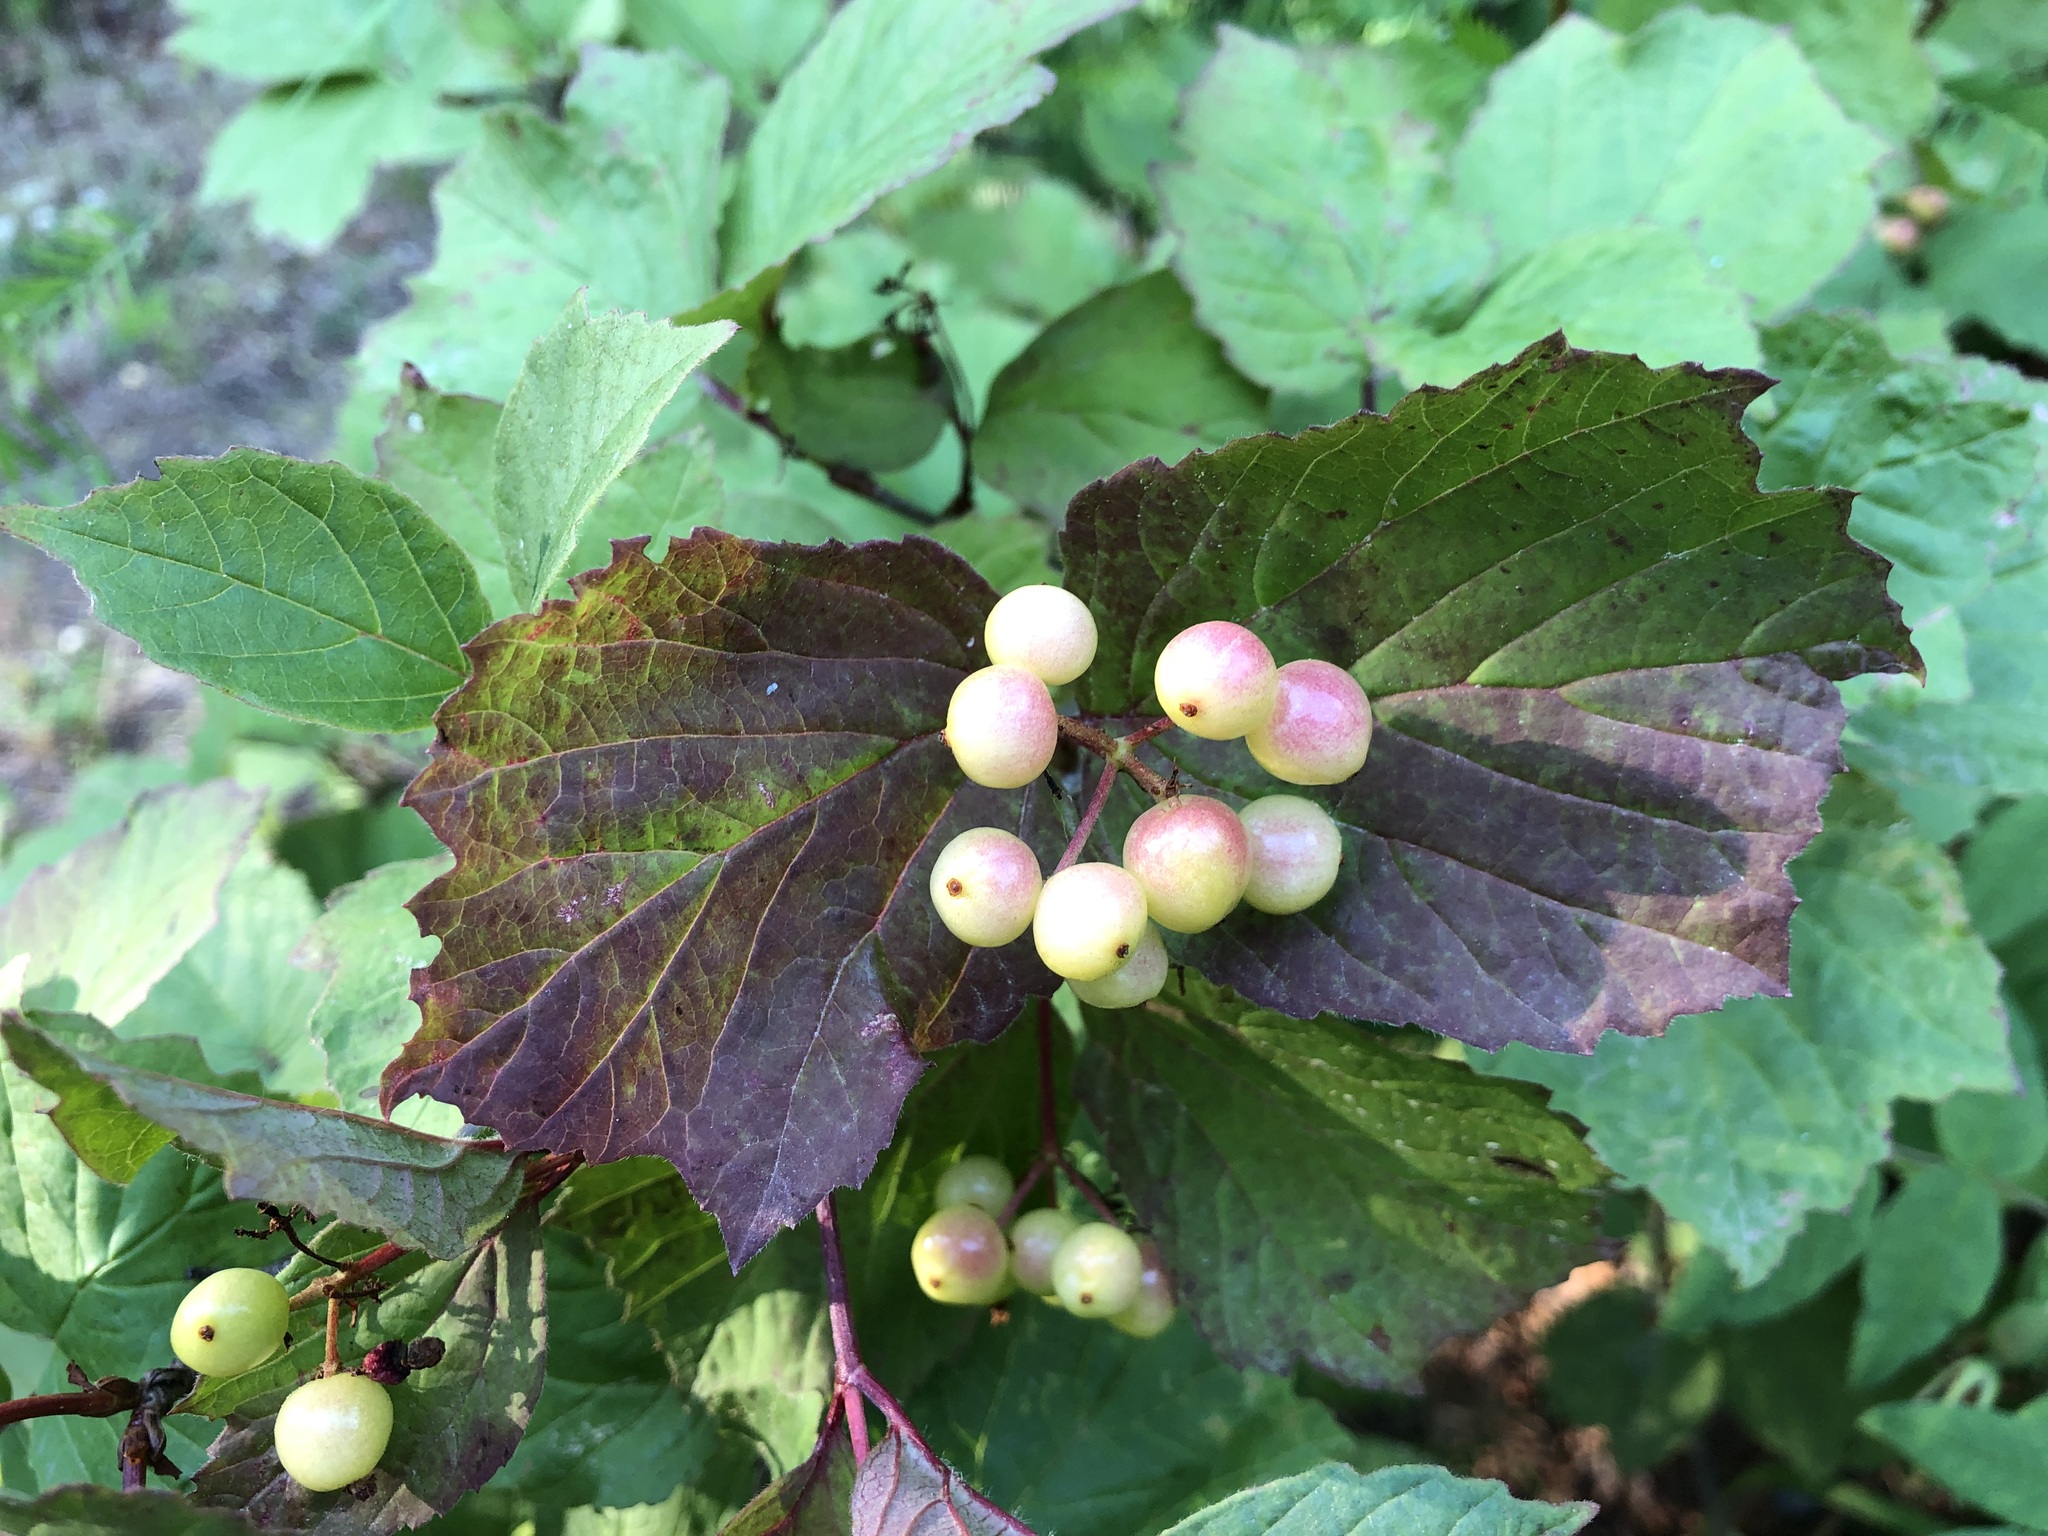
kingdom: Plantae
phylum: Tracheophyta
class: Magnoliopsida
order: Dipsacales
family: Viburnaceae
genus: Viburnum
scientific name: Viburnum edule
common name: Mooseberry
